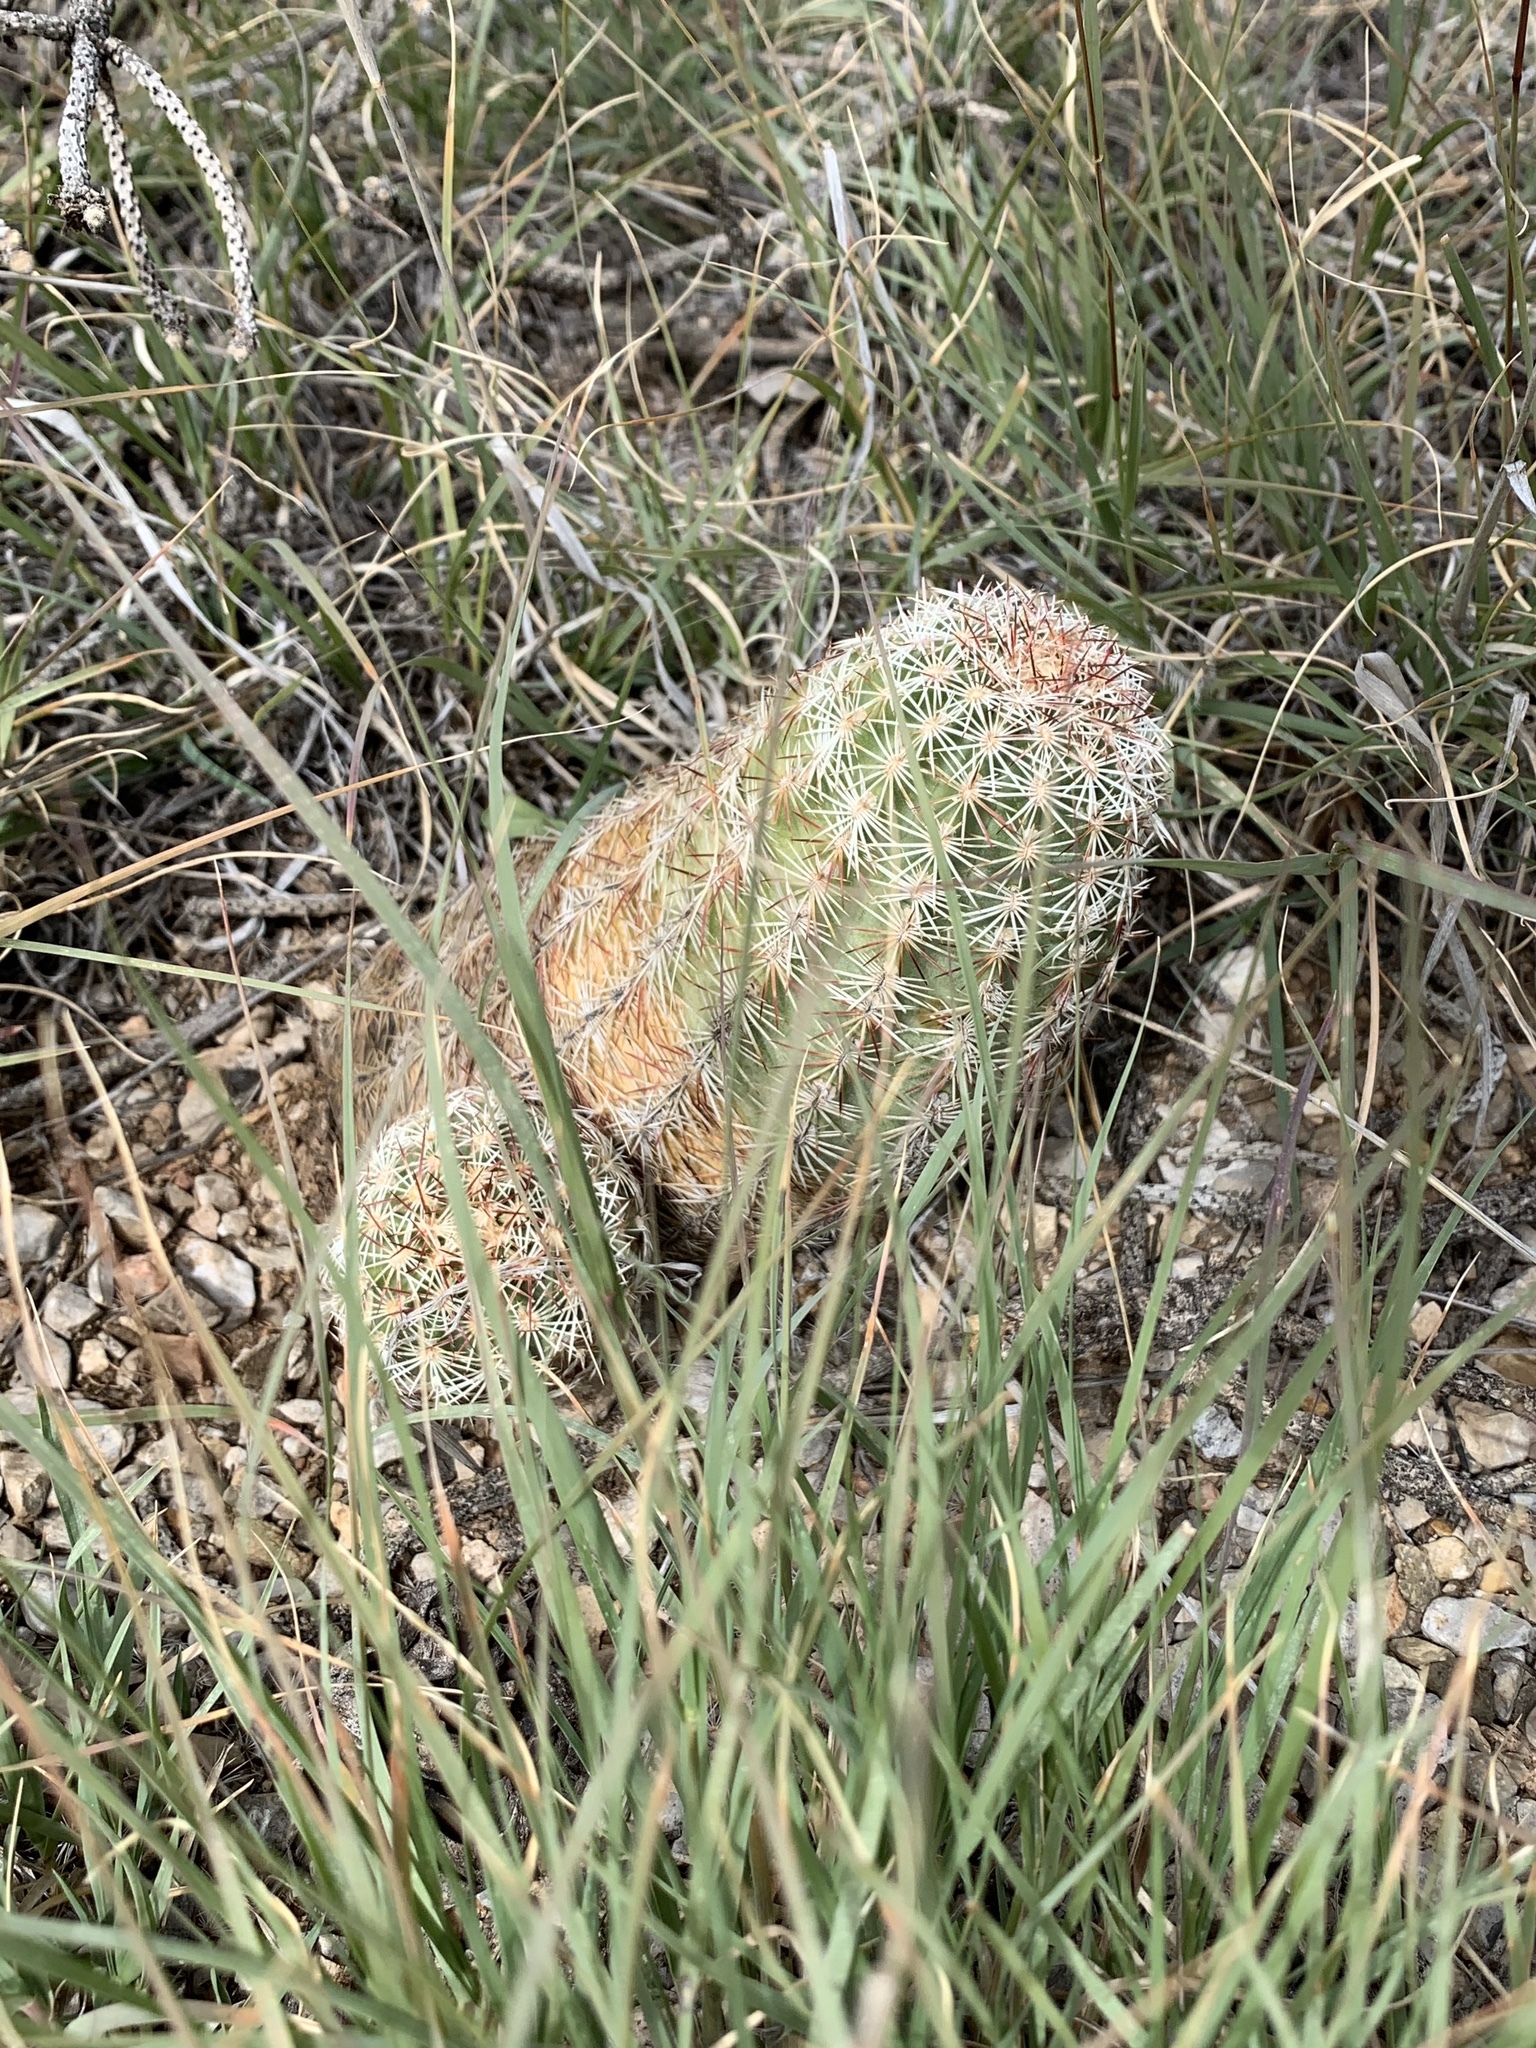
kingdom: Plantae
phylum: Tracheophyta
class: Magnoliopsida
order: Caryophyllales
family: Cactaceae
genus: Echinocereus
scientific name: Echinocereus viridiflorus
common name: Nylon hedgehog cactus
